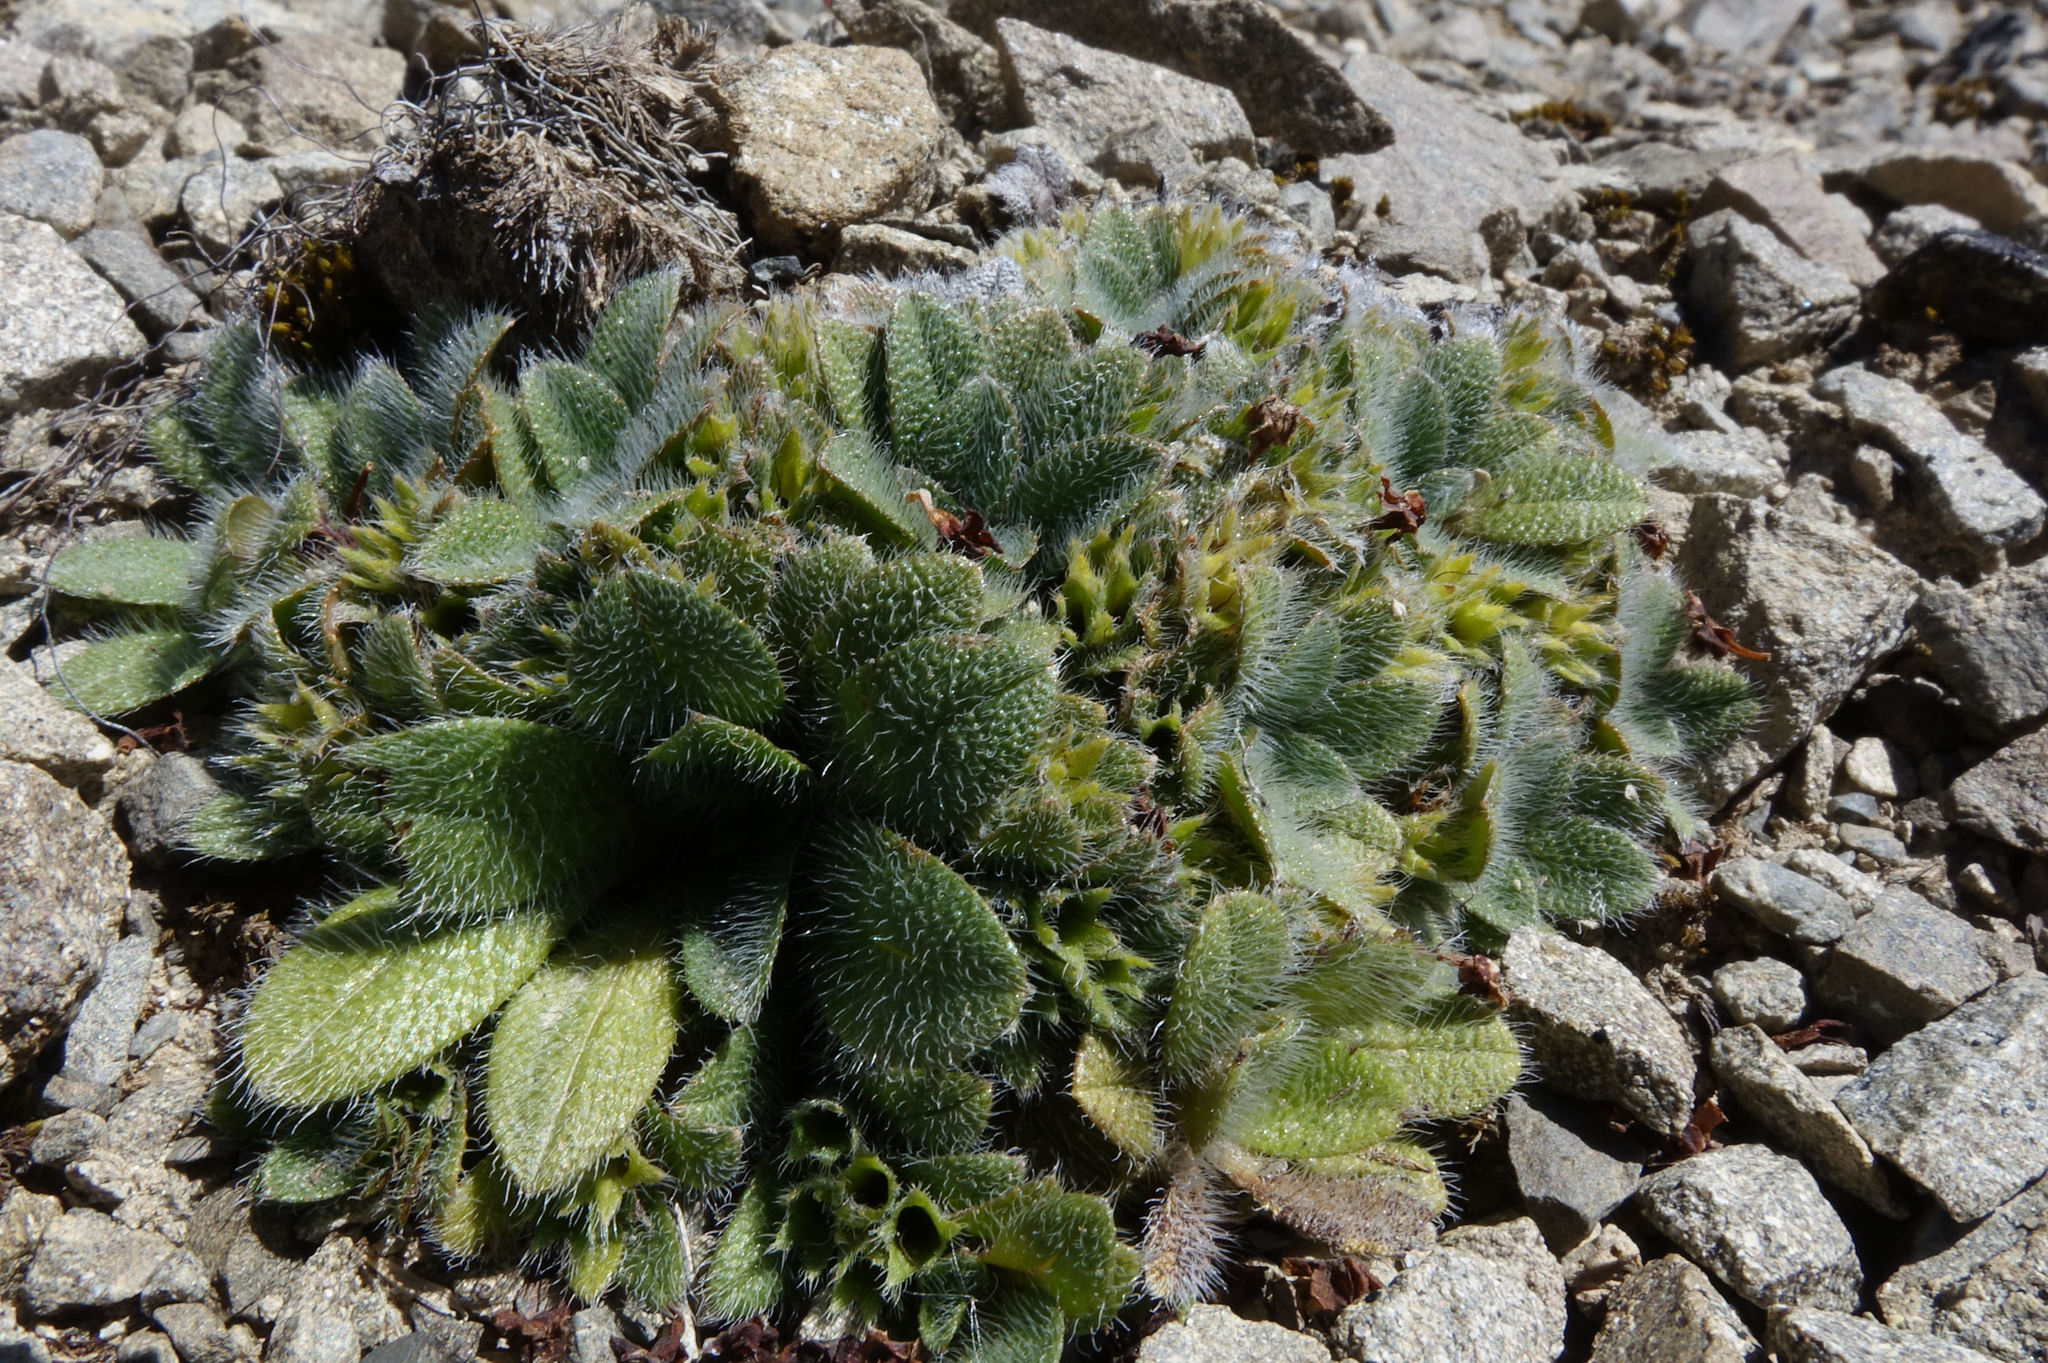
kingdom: Plantae
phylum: Tracheophyta
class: Magnoliopsida
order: Boraginales
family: Boraginaceae
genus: Myosotis
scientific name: Myosotis antarctica
